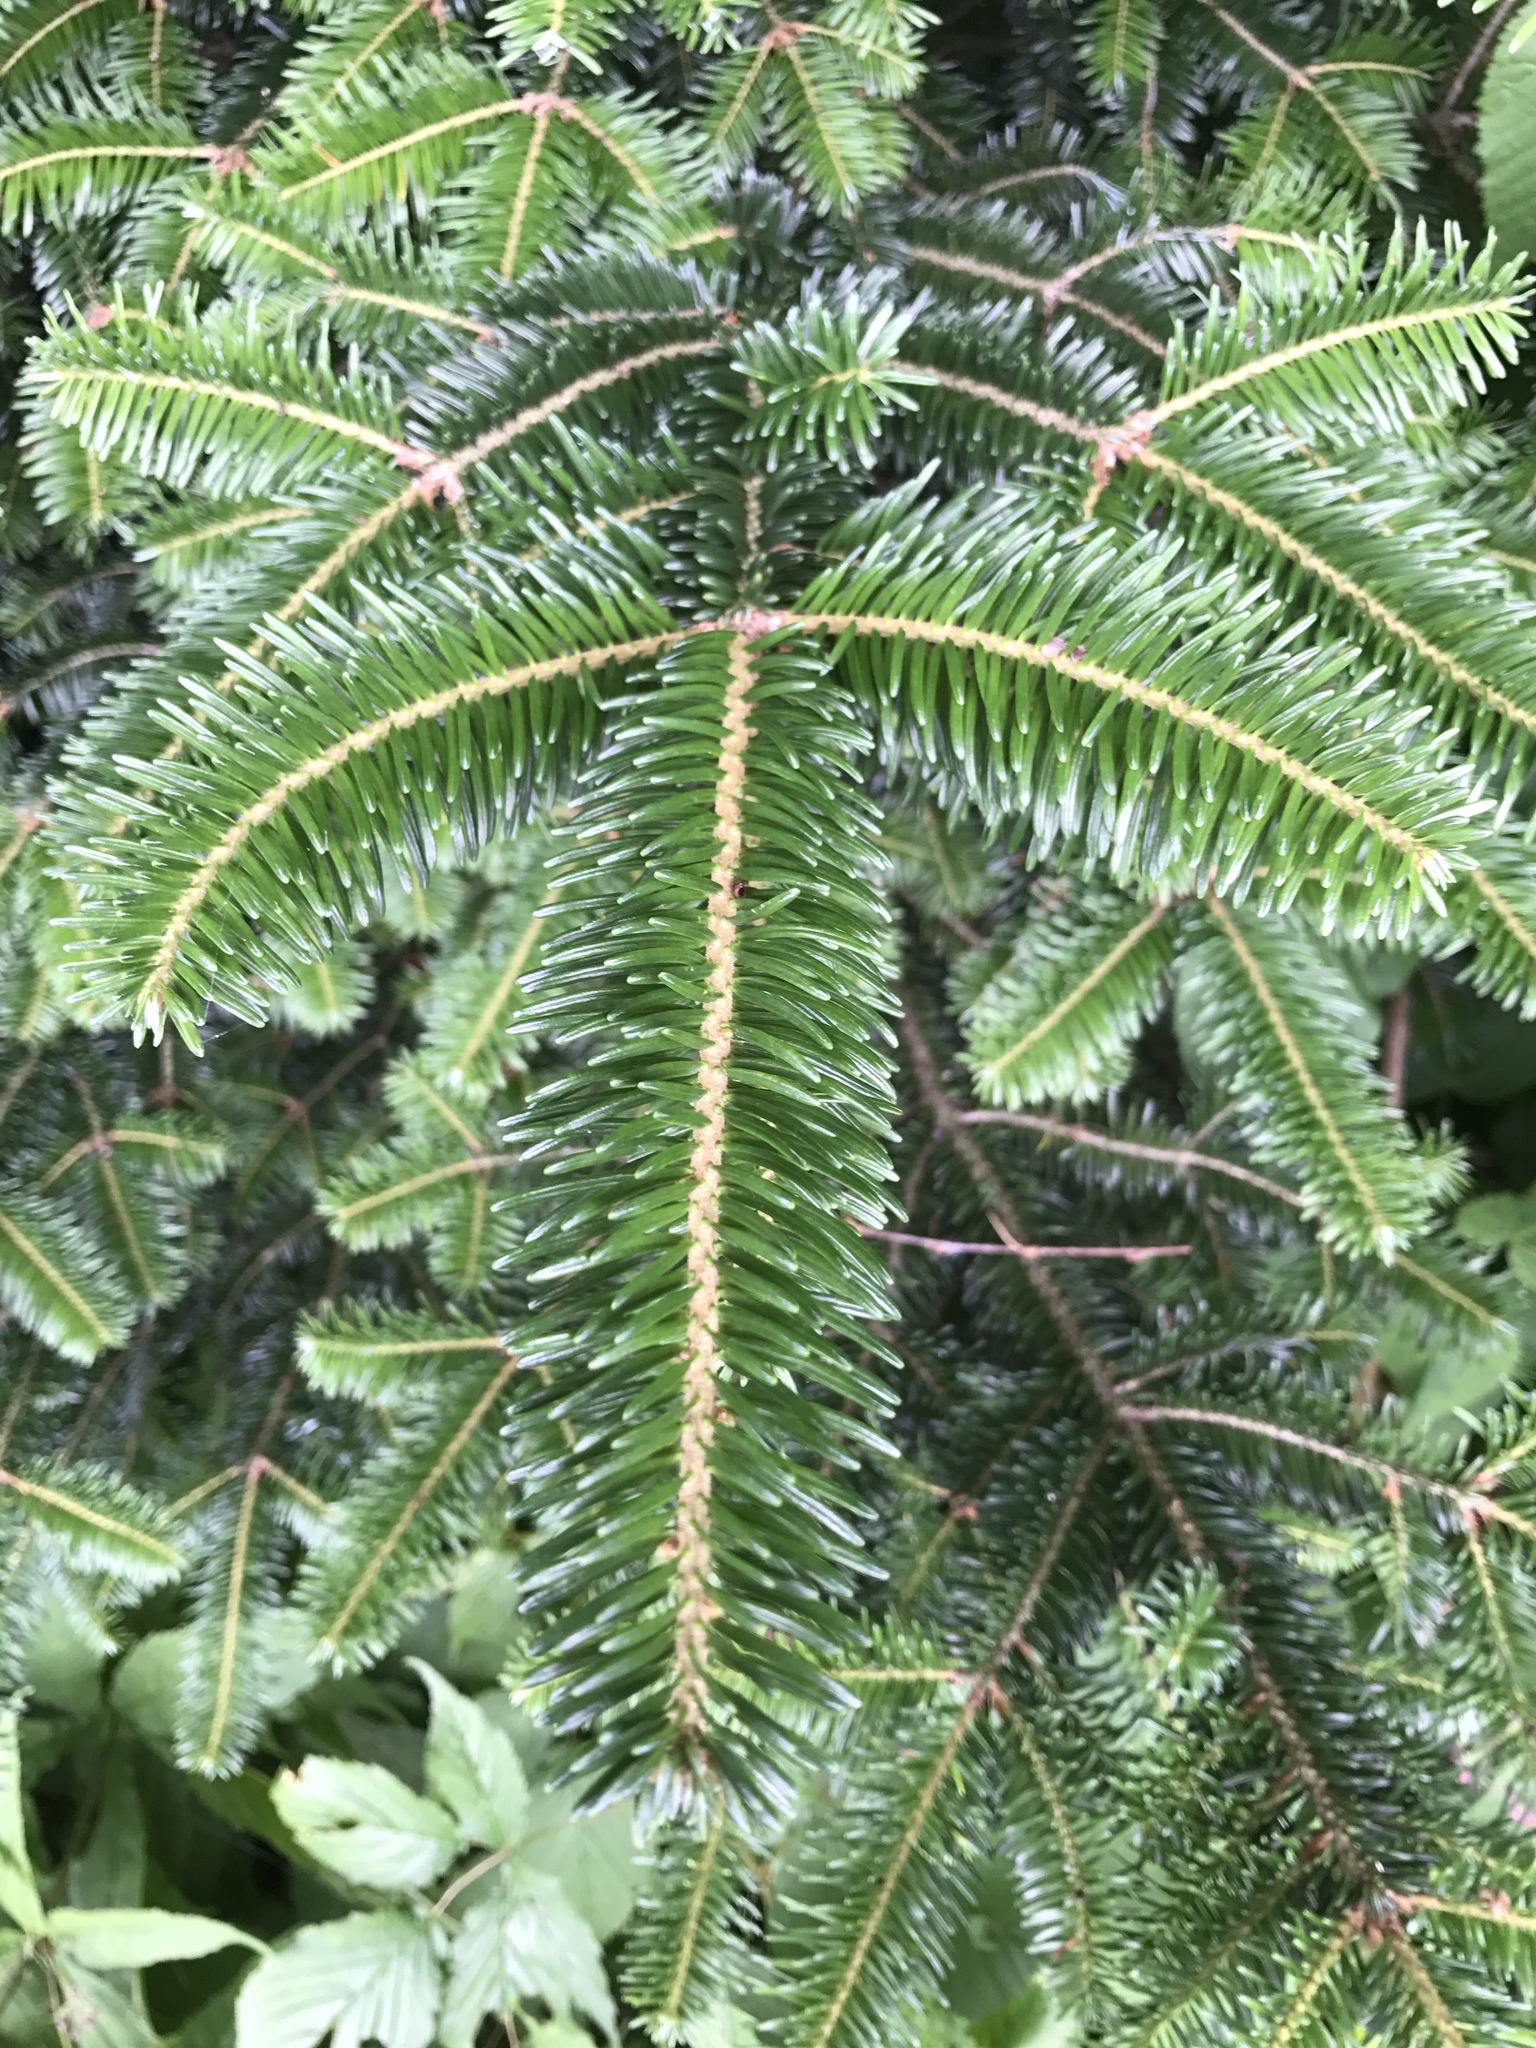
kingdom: Plantae
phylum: Tracheophyta
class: Pinopsida
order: Pinales
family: Pinaceae
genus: Abies
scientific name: Abies fraseri
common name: Fraser fir
